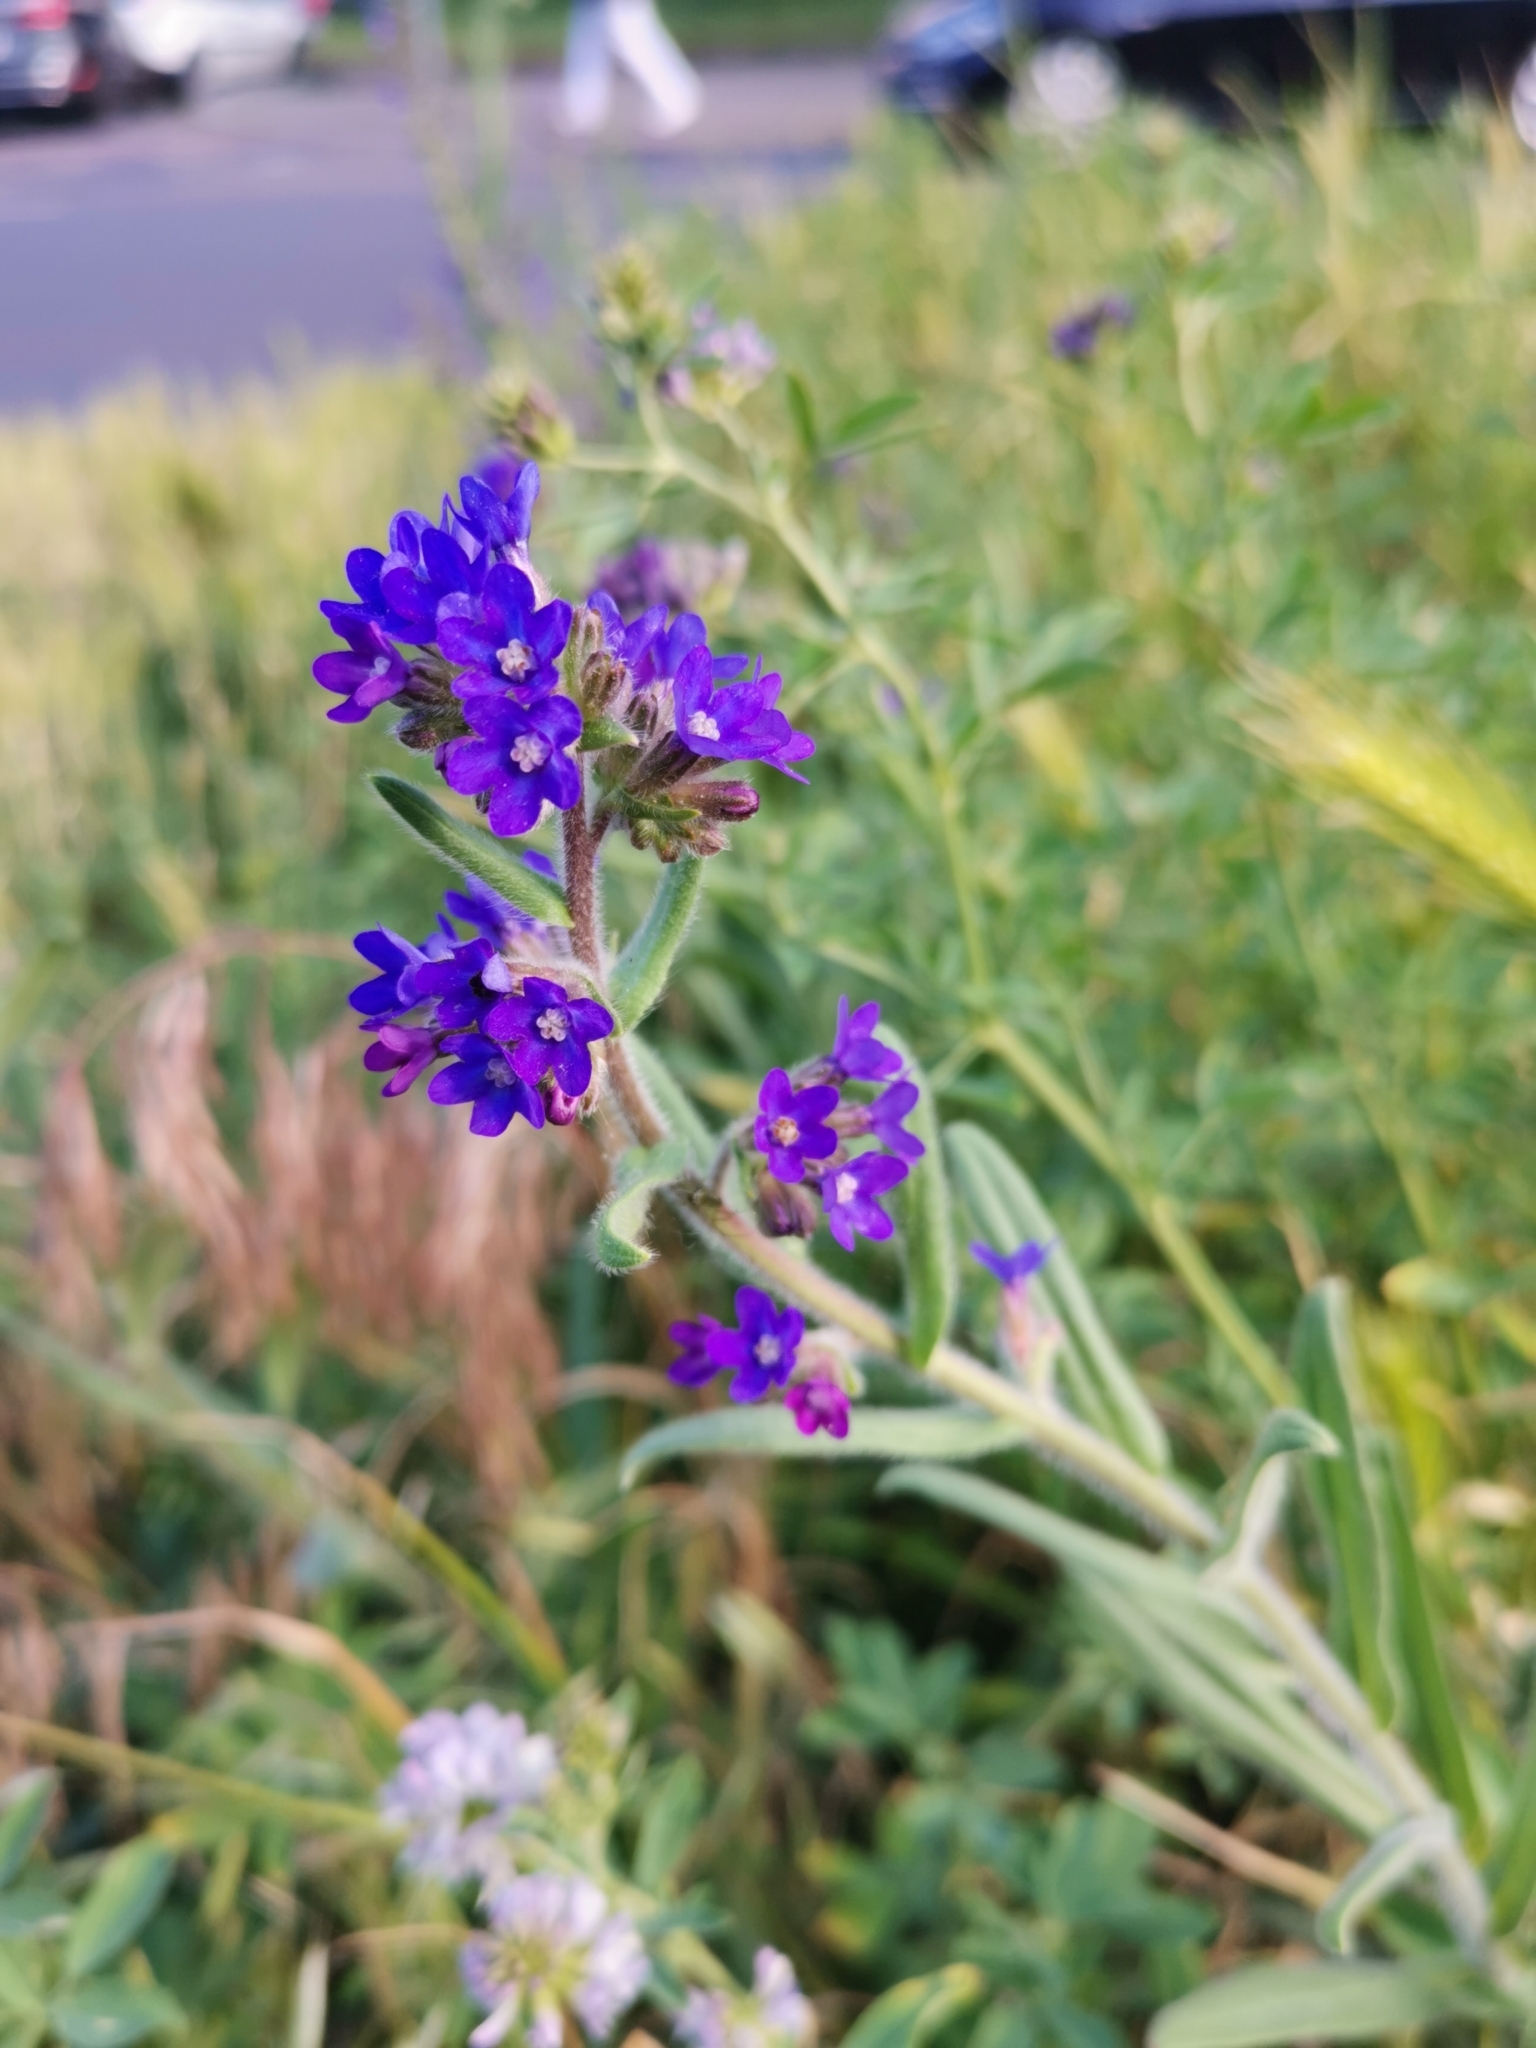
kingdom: Plantae
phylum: Tracheophyta
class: Magnoliopsida
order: Boraginales
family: Boraginaceae
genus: Anchusa
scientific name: Anchusa officinalis
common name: Alkanet
